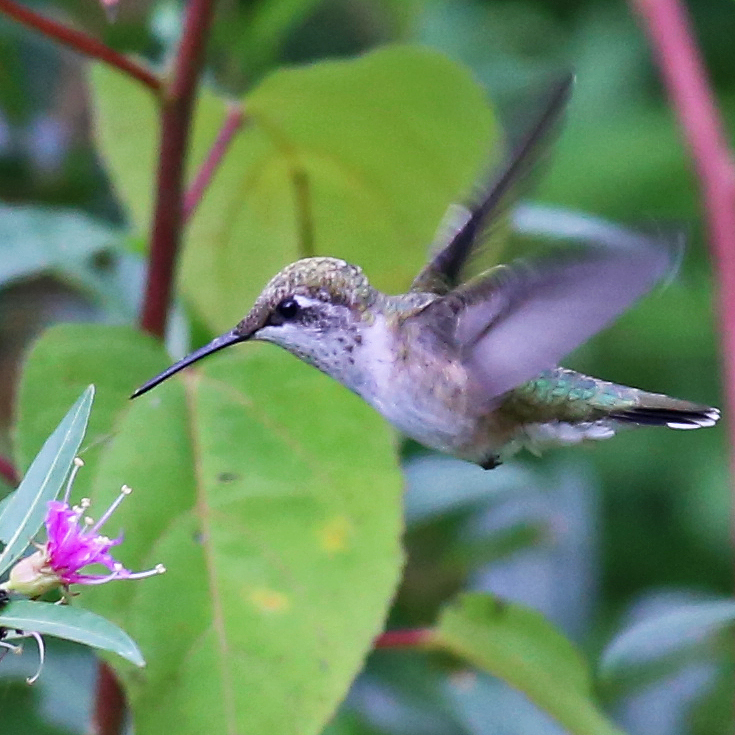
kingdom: Animalia
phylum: Chordata
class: Aves
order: Apodiformes
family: Trochilidae
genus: Archilochus
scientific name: Archilochus colubris
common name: Ruby-throated hummingbird
